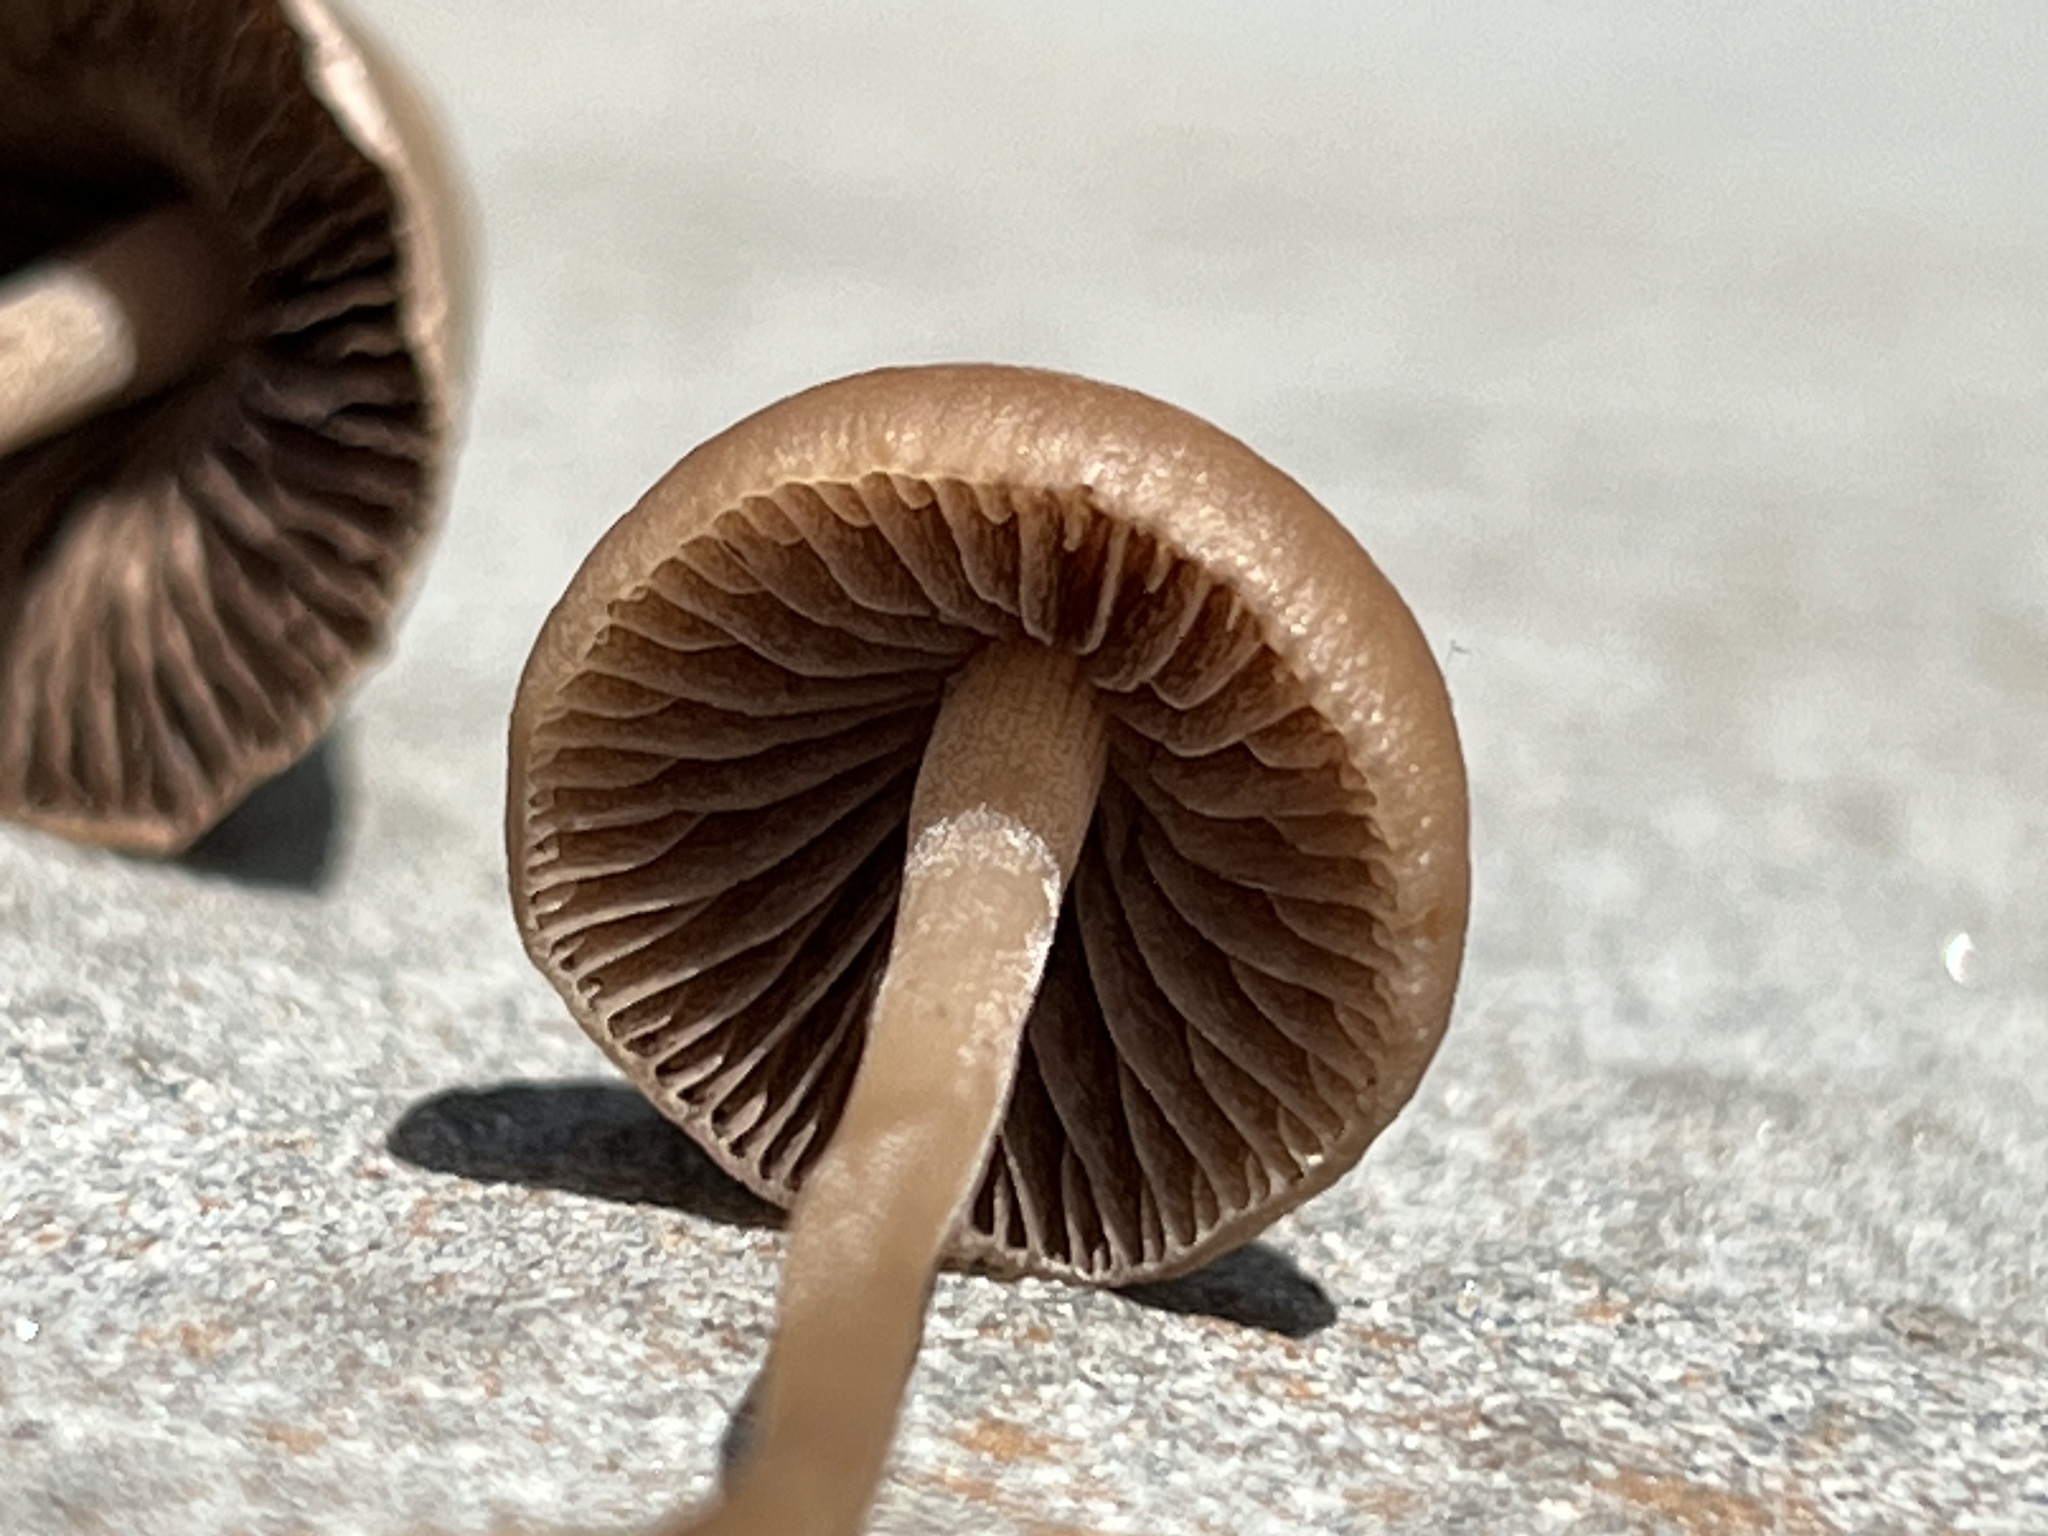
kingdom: Fungi
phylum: Basidiomycota
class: Agaricomycetes
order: Agaricales
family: Bolbitiaceae
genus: Panaeolus
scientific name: Panaeolus cinctulus
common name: Banded mottlegill
